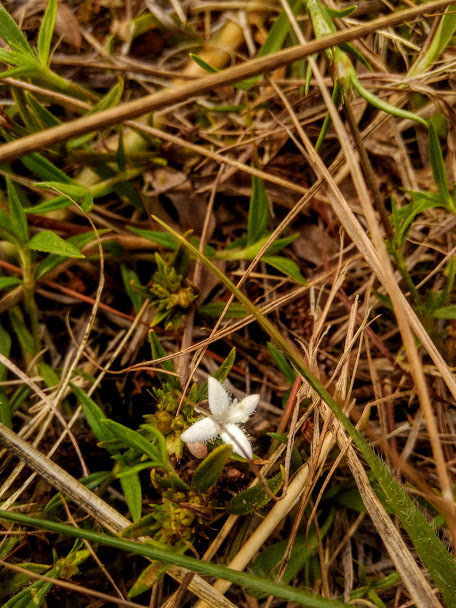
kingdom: Plantae
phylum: Tracheophyta
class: Magnoliopsida
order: Gentianales
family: Rubiaceae
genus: Spermacoce
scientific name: Spermacoce chartensis
